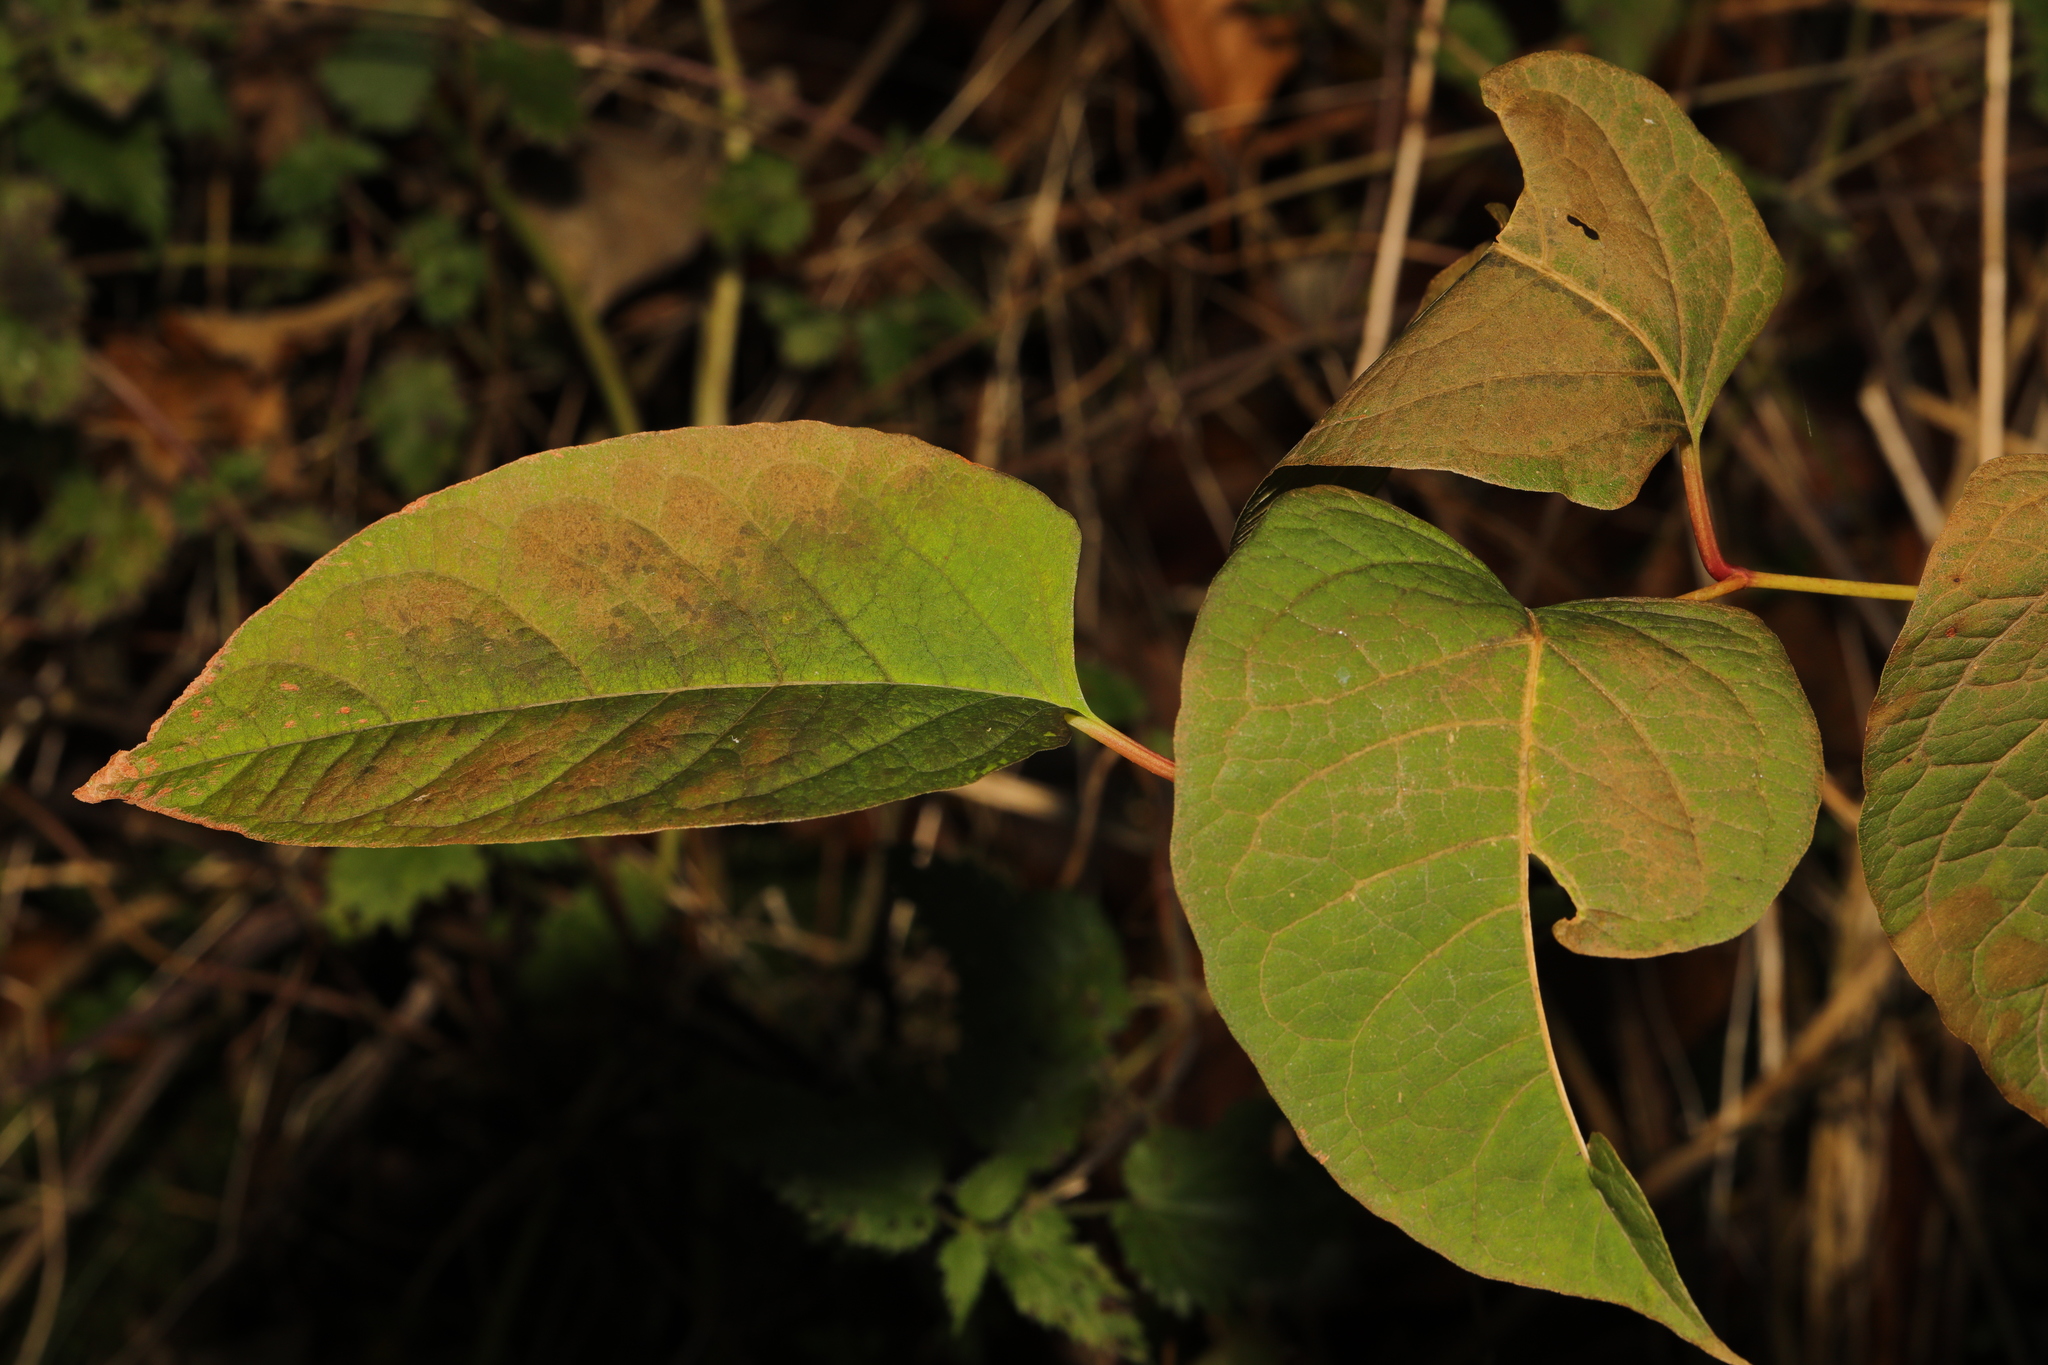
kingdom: Plantae
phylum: Tracheophyta
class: Magnoliopsida
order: Caryophyllales
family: Polygonaceae
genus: Reynoutria
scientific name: Reynoutria japonica
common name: Japanese knotweed
